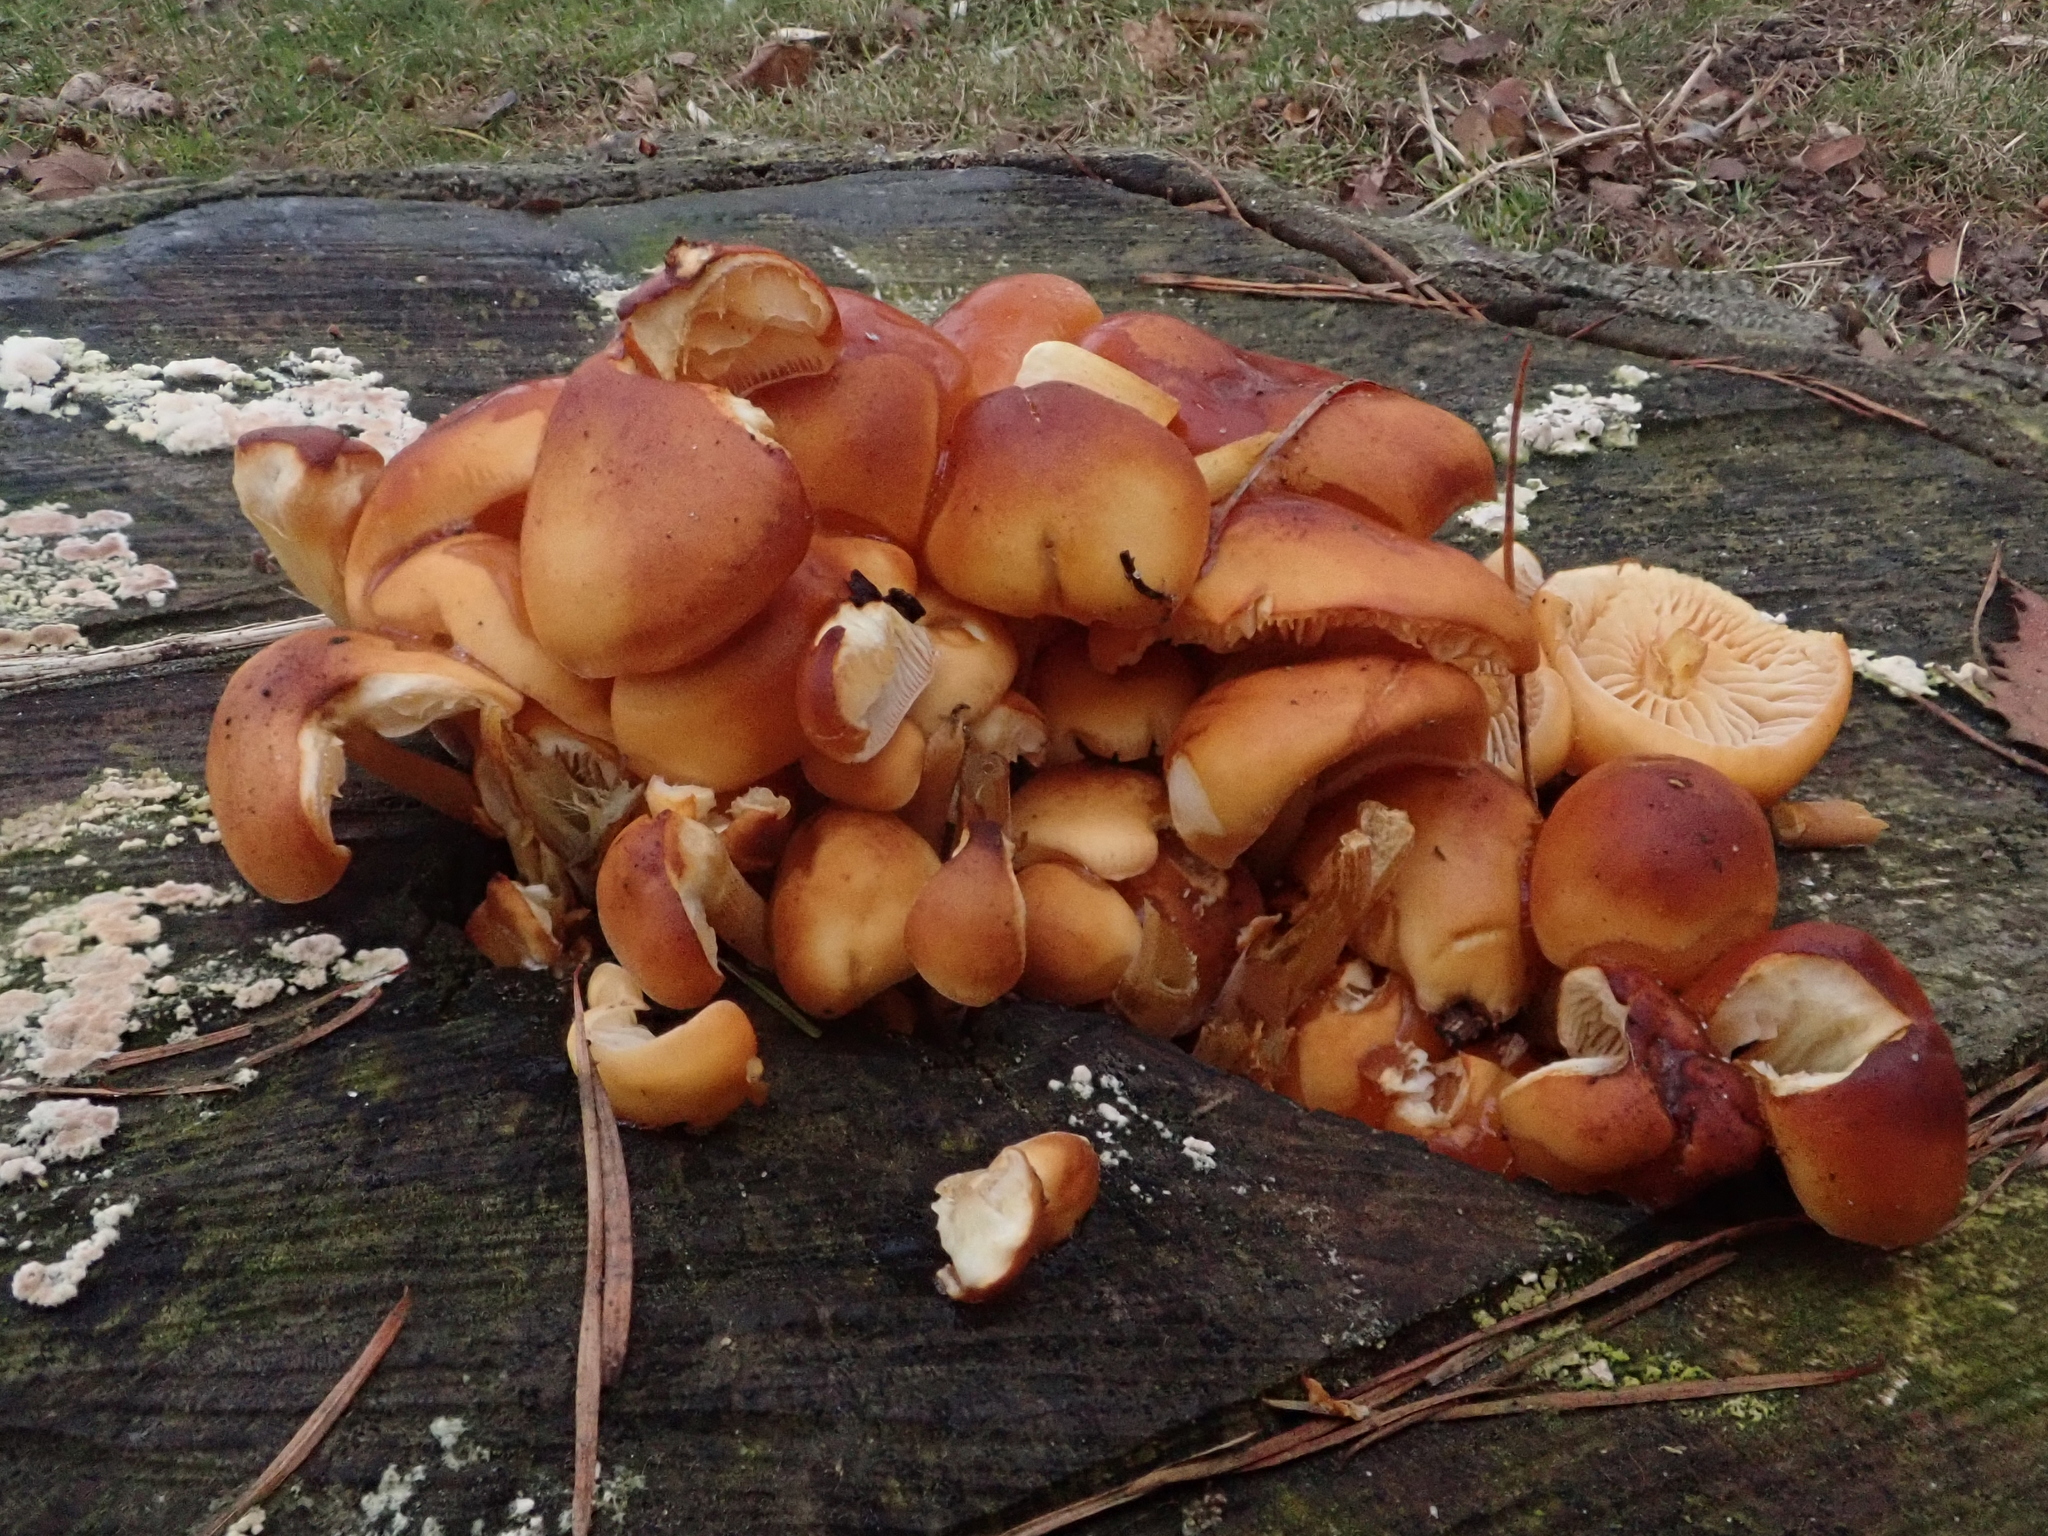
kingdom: Fungi
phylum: Basidiomycota
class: Agaricomycetes
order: Agaricales
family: Physalacriaceae
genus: Flammulina
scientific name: Flammulina
